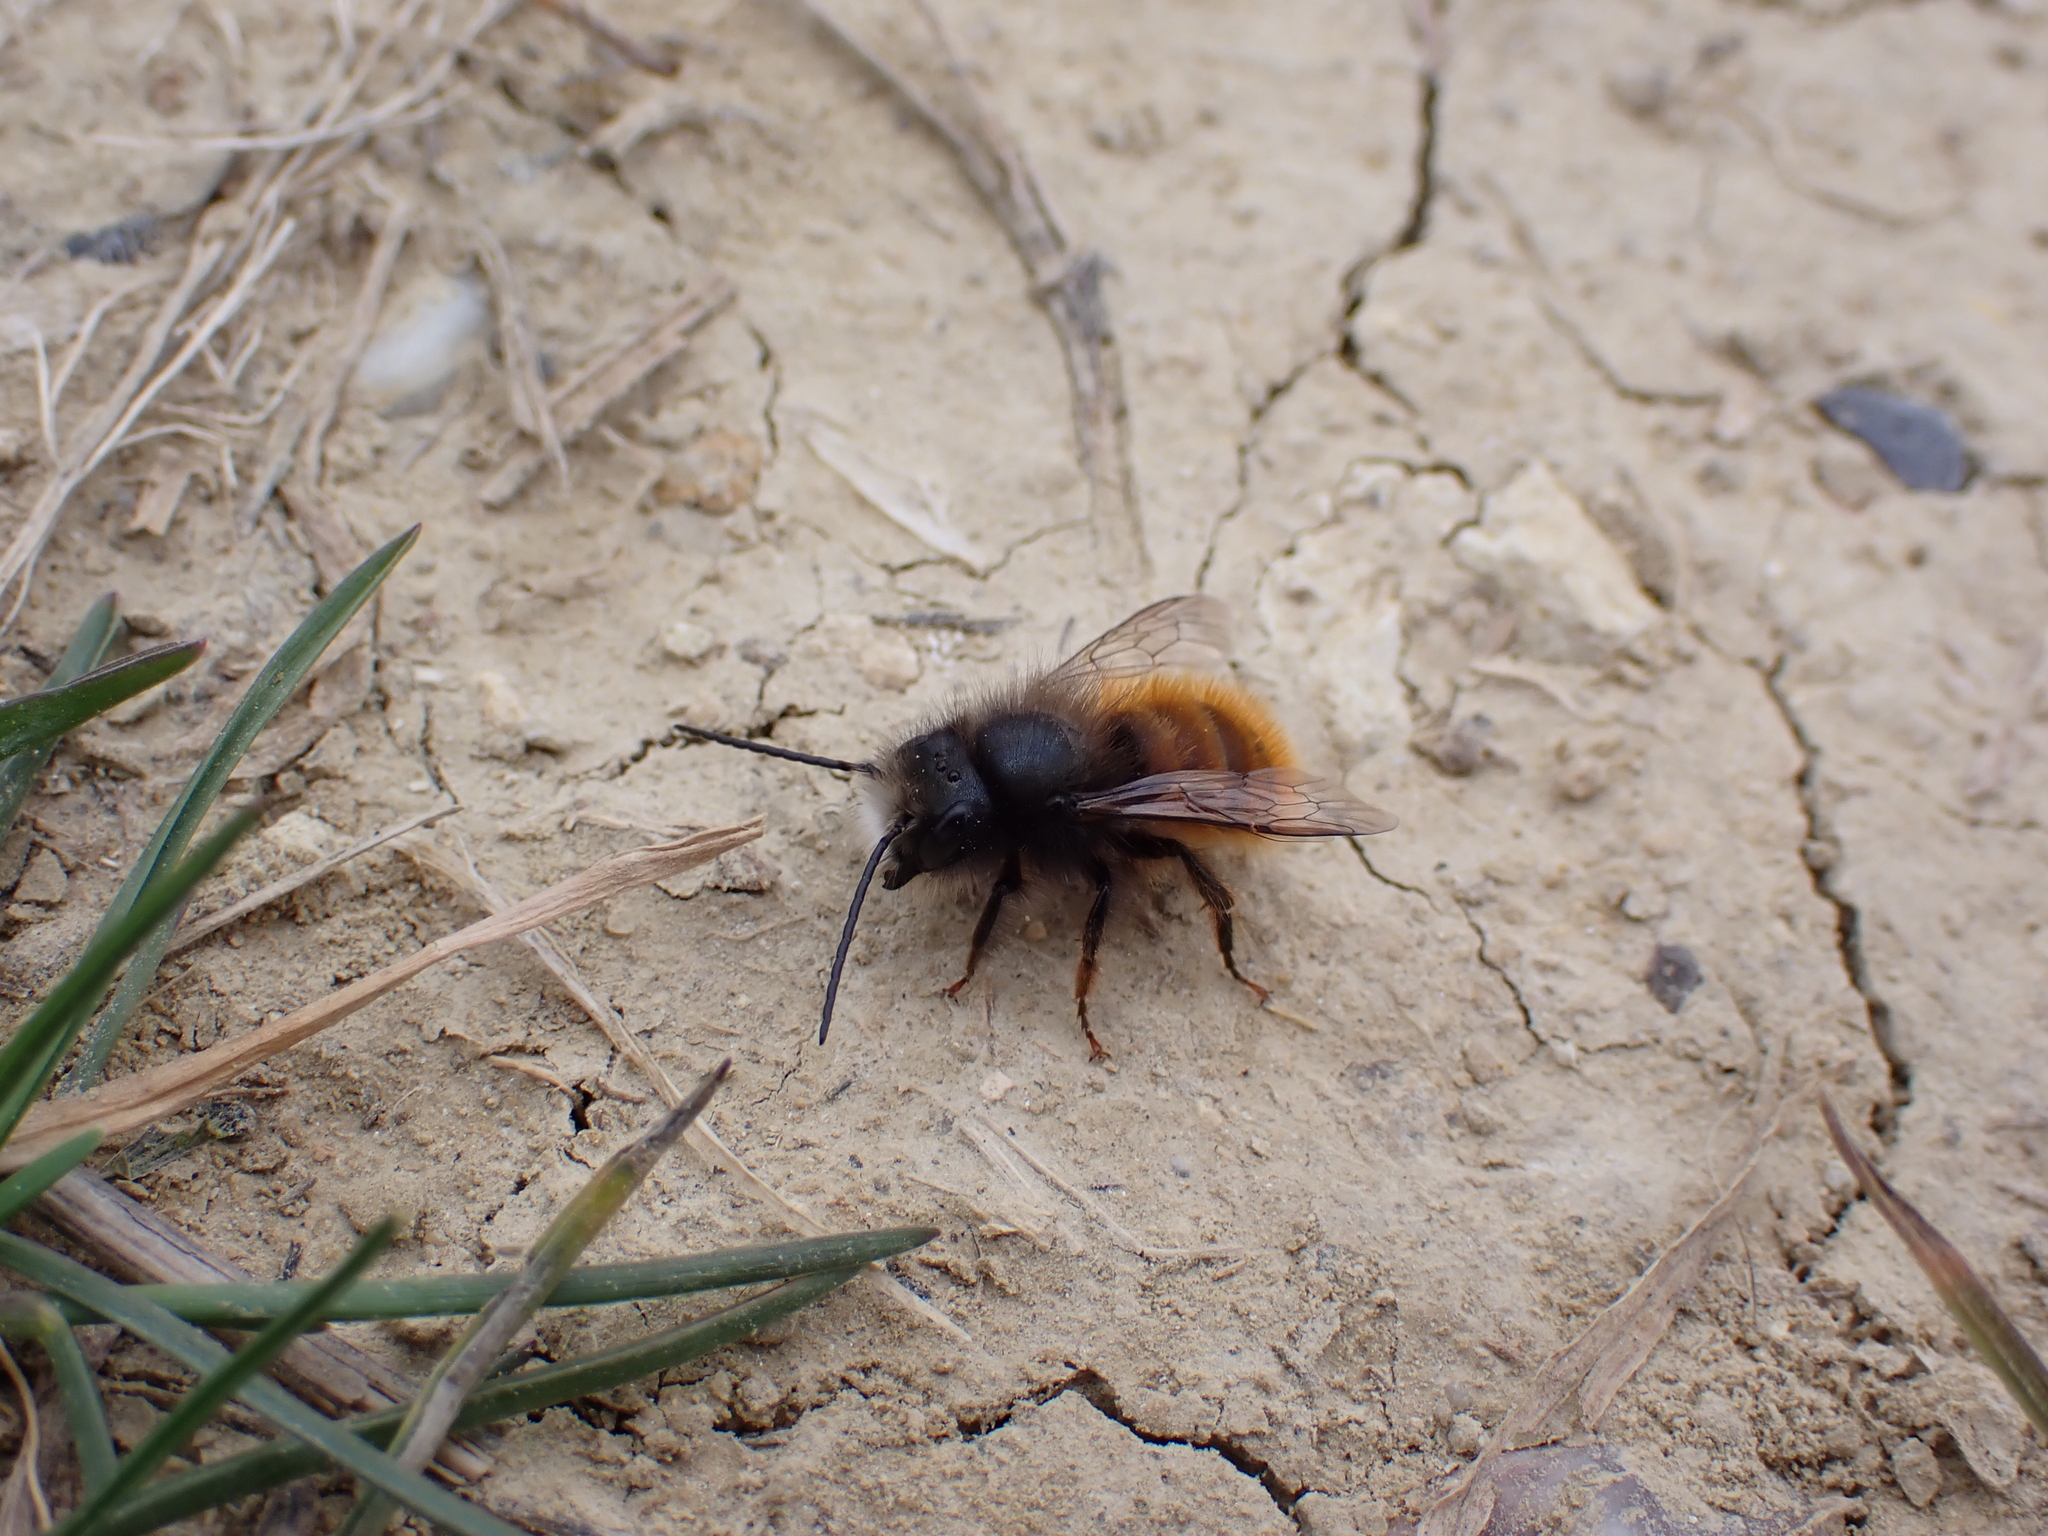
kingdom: Animalia
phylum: Arthropoda
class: Insecta
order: Hymenoptera
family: Megachilidae
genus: Osmia
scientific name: Osmia cornuta
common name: Mason bee
